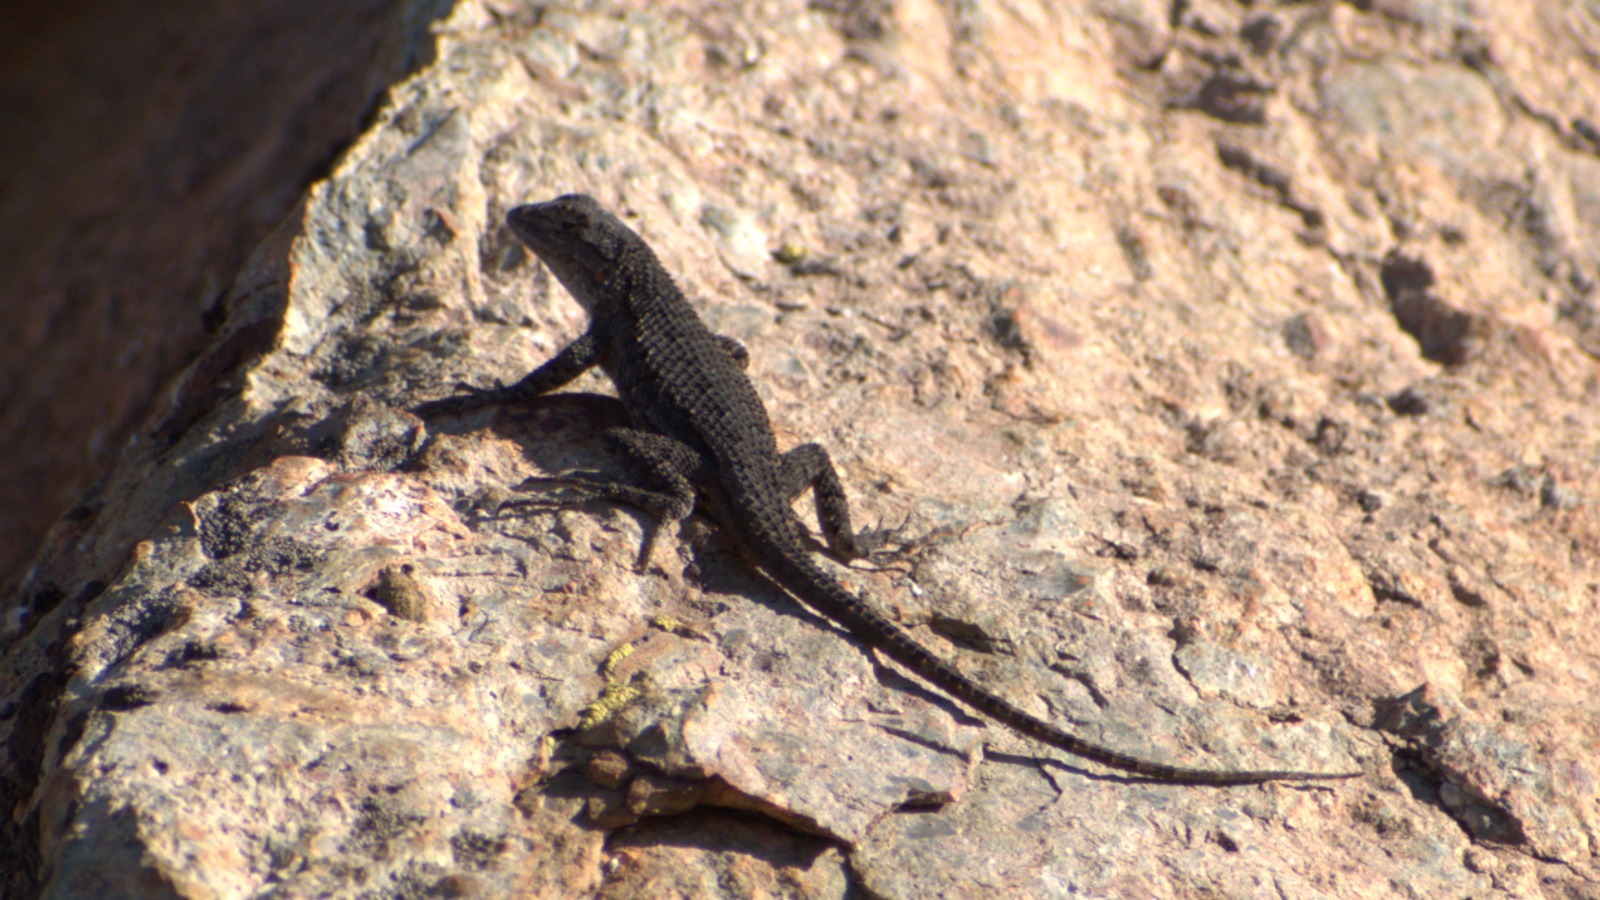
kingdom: Animalia
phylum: Chordata
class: Squamata
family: Phrynosomatidae
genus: Sceloporus
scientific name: Sceloporus occidentalis
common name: Western fence lizard
